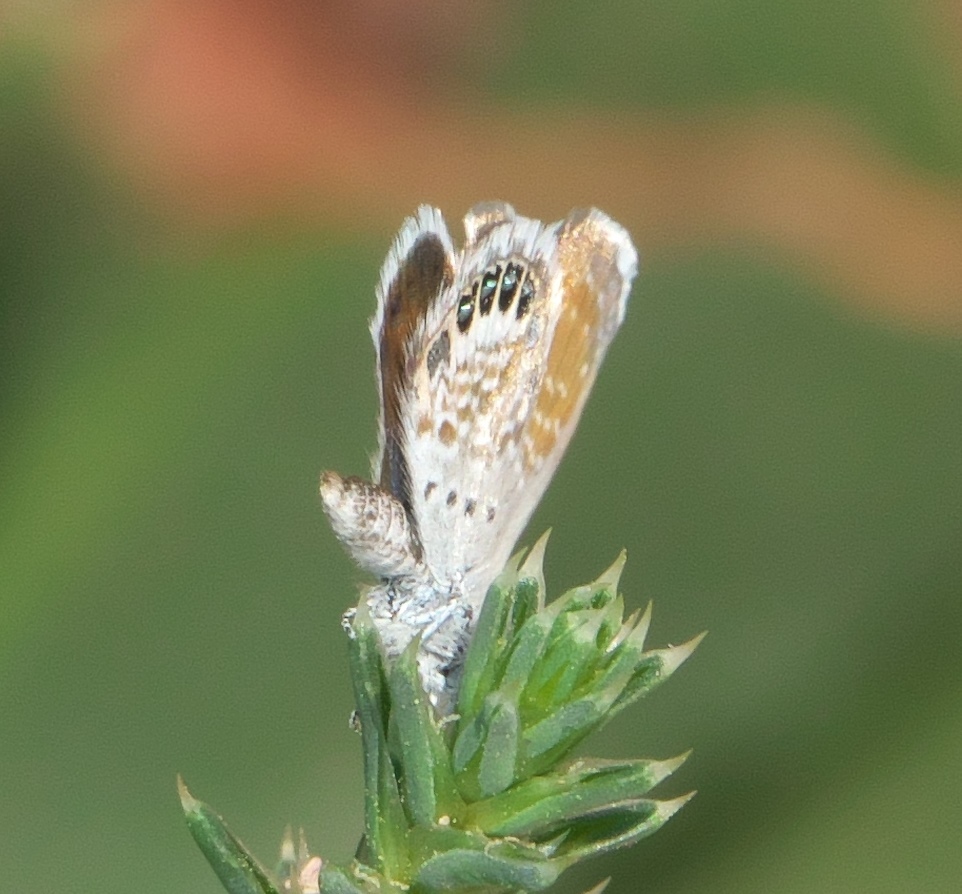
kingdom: Animalia
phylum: Arthropoda
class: Insecta
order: Lepidoptera
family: Lycaenidae
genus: Brephidium
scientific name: Brephidium exilis
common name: Pygmy blue
